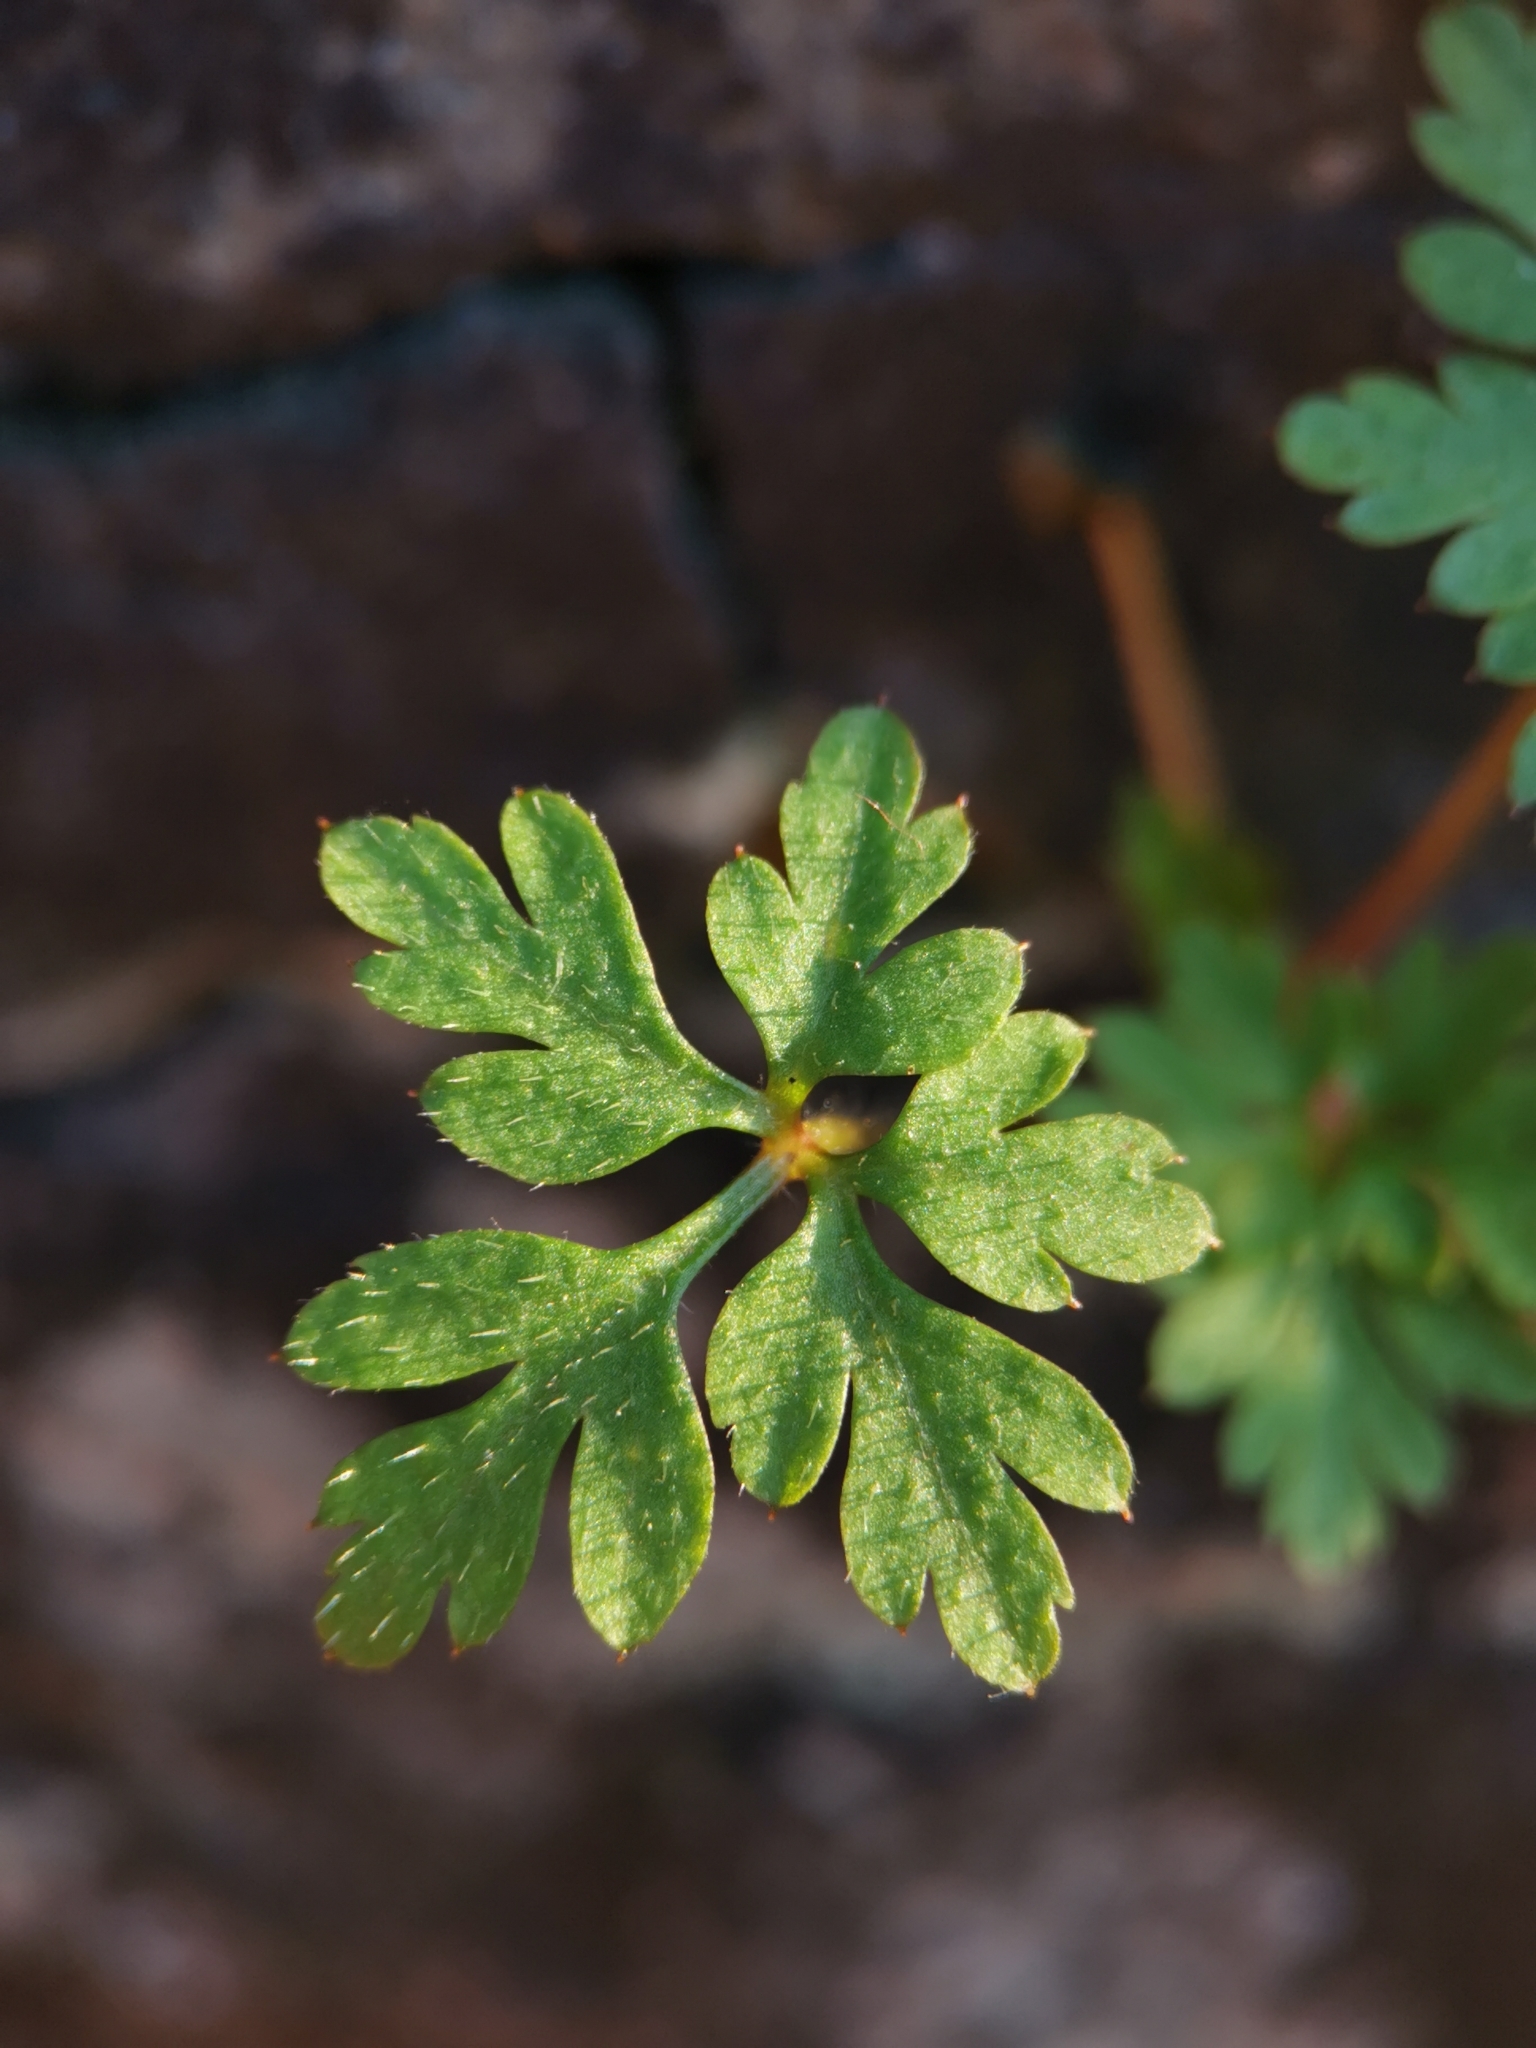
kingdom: Plantae
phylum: Tracheophyta
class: Magnoliopsida
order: Geraniales
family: Geraniaceae
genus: Geranium
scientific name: Geranium robertianum
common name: Herb-robert
